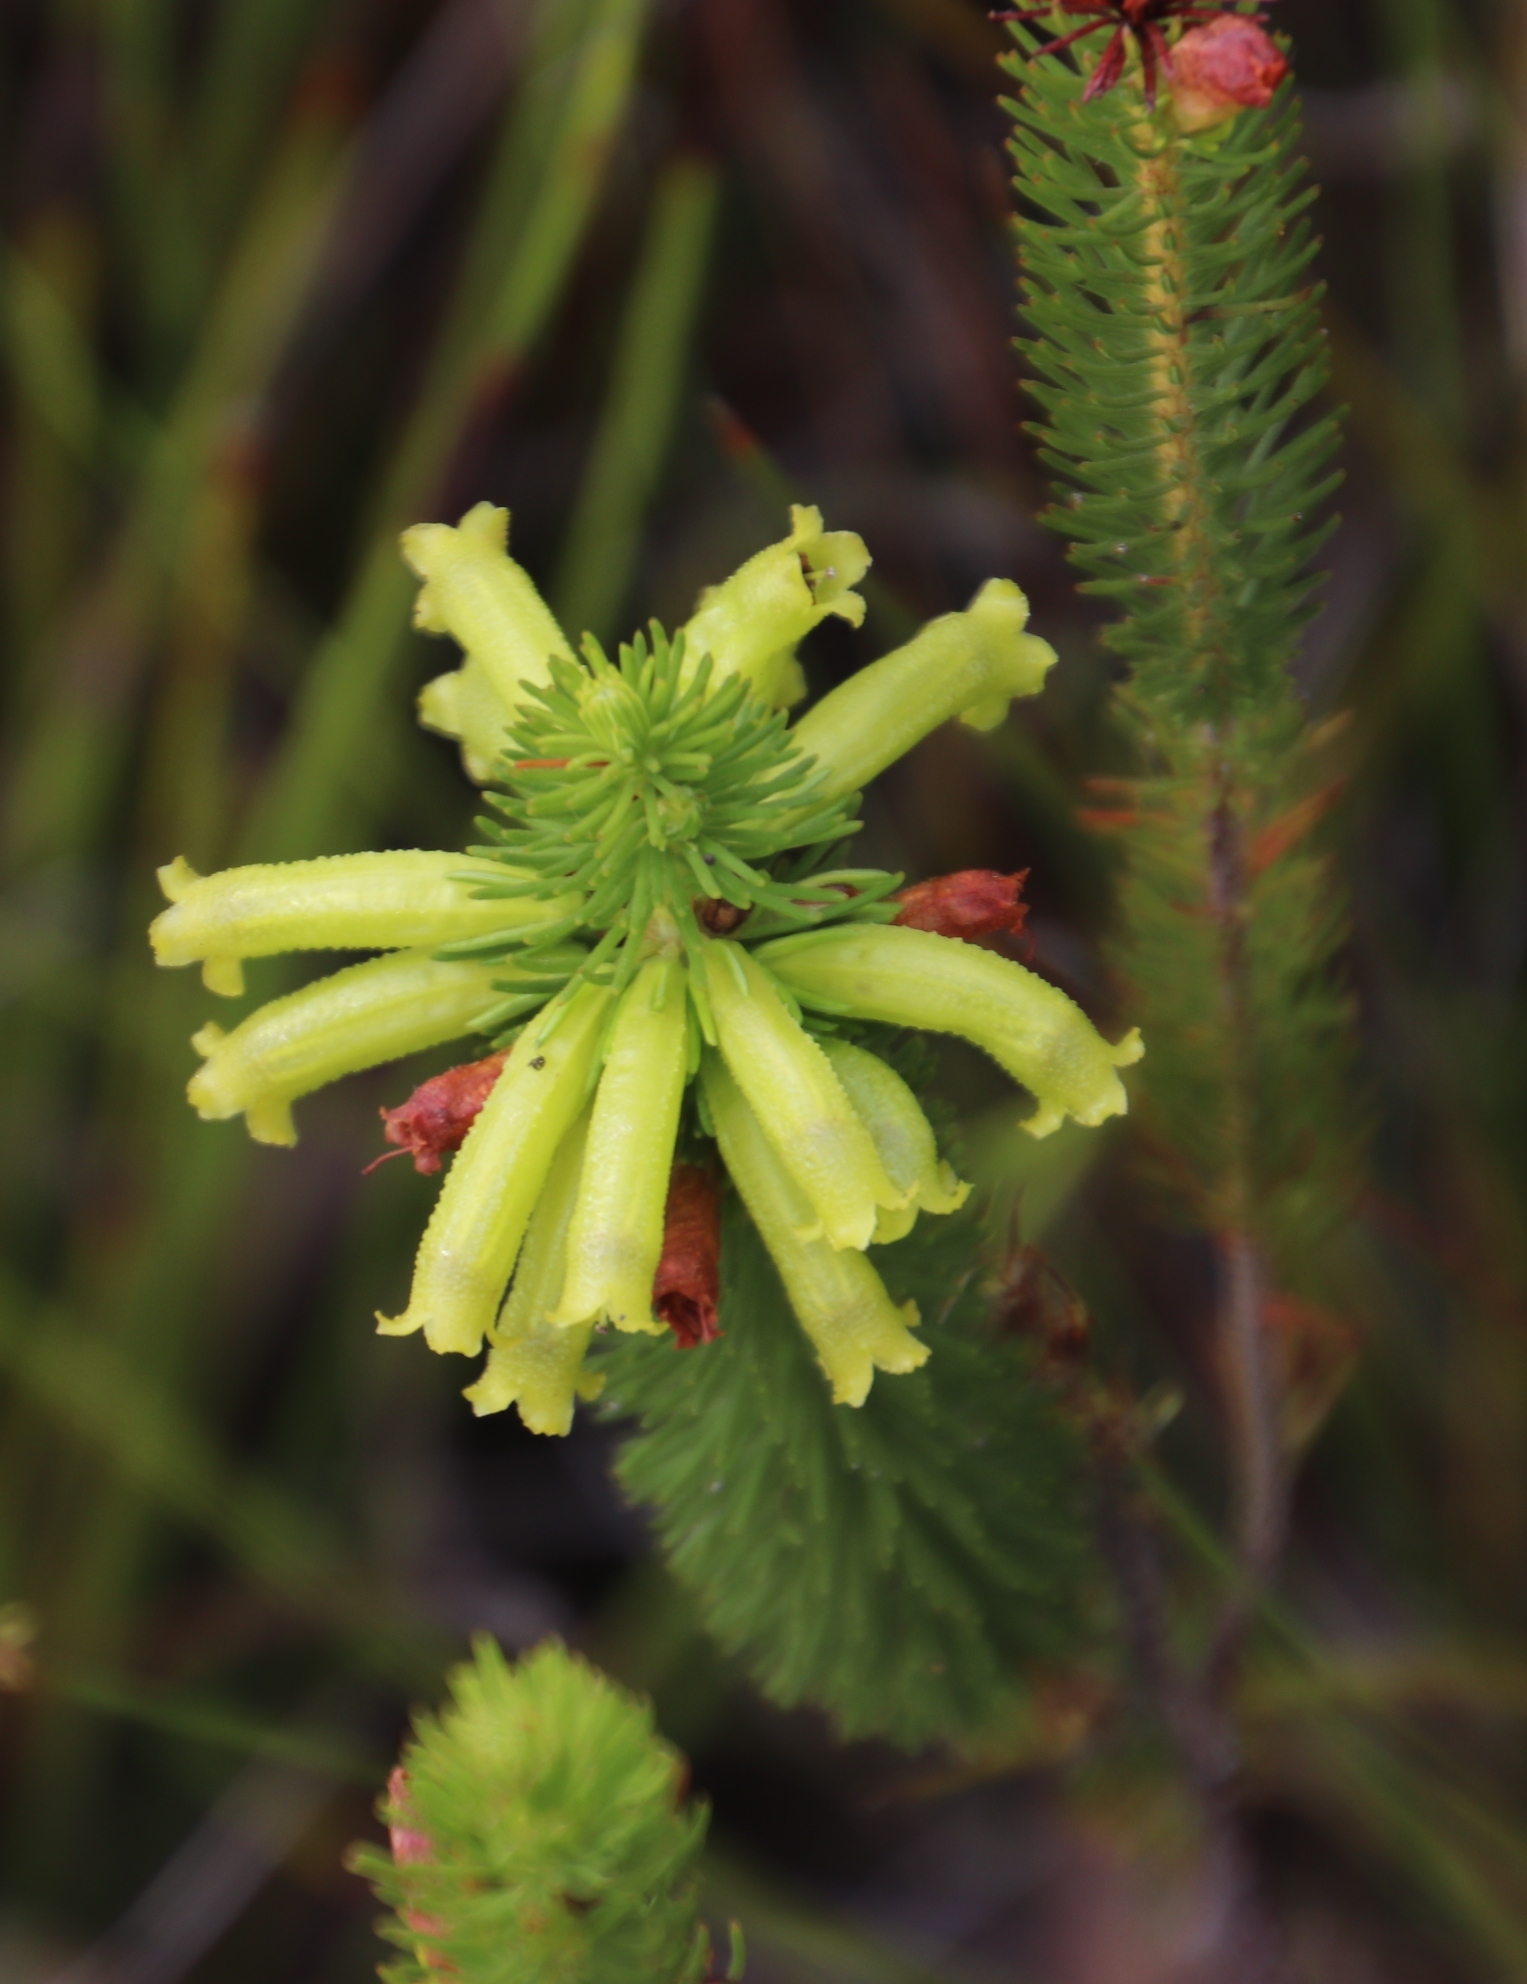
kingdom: Plantae
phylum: Tracheophyta
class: Magnoliopsida
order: Ericales
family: Ericaceae
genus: Erica
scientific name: Erica viscaria
